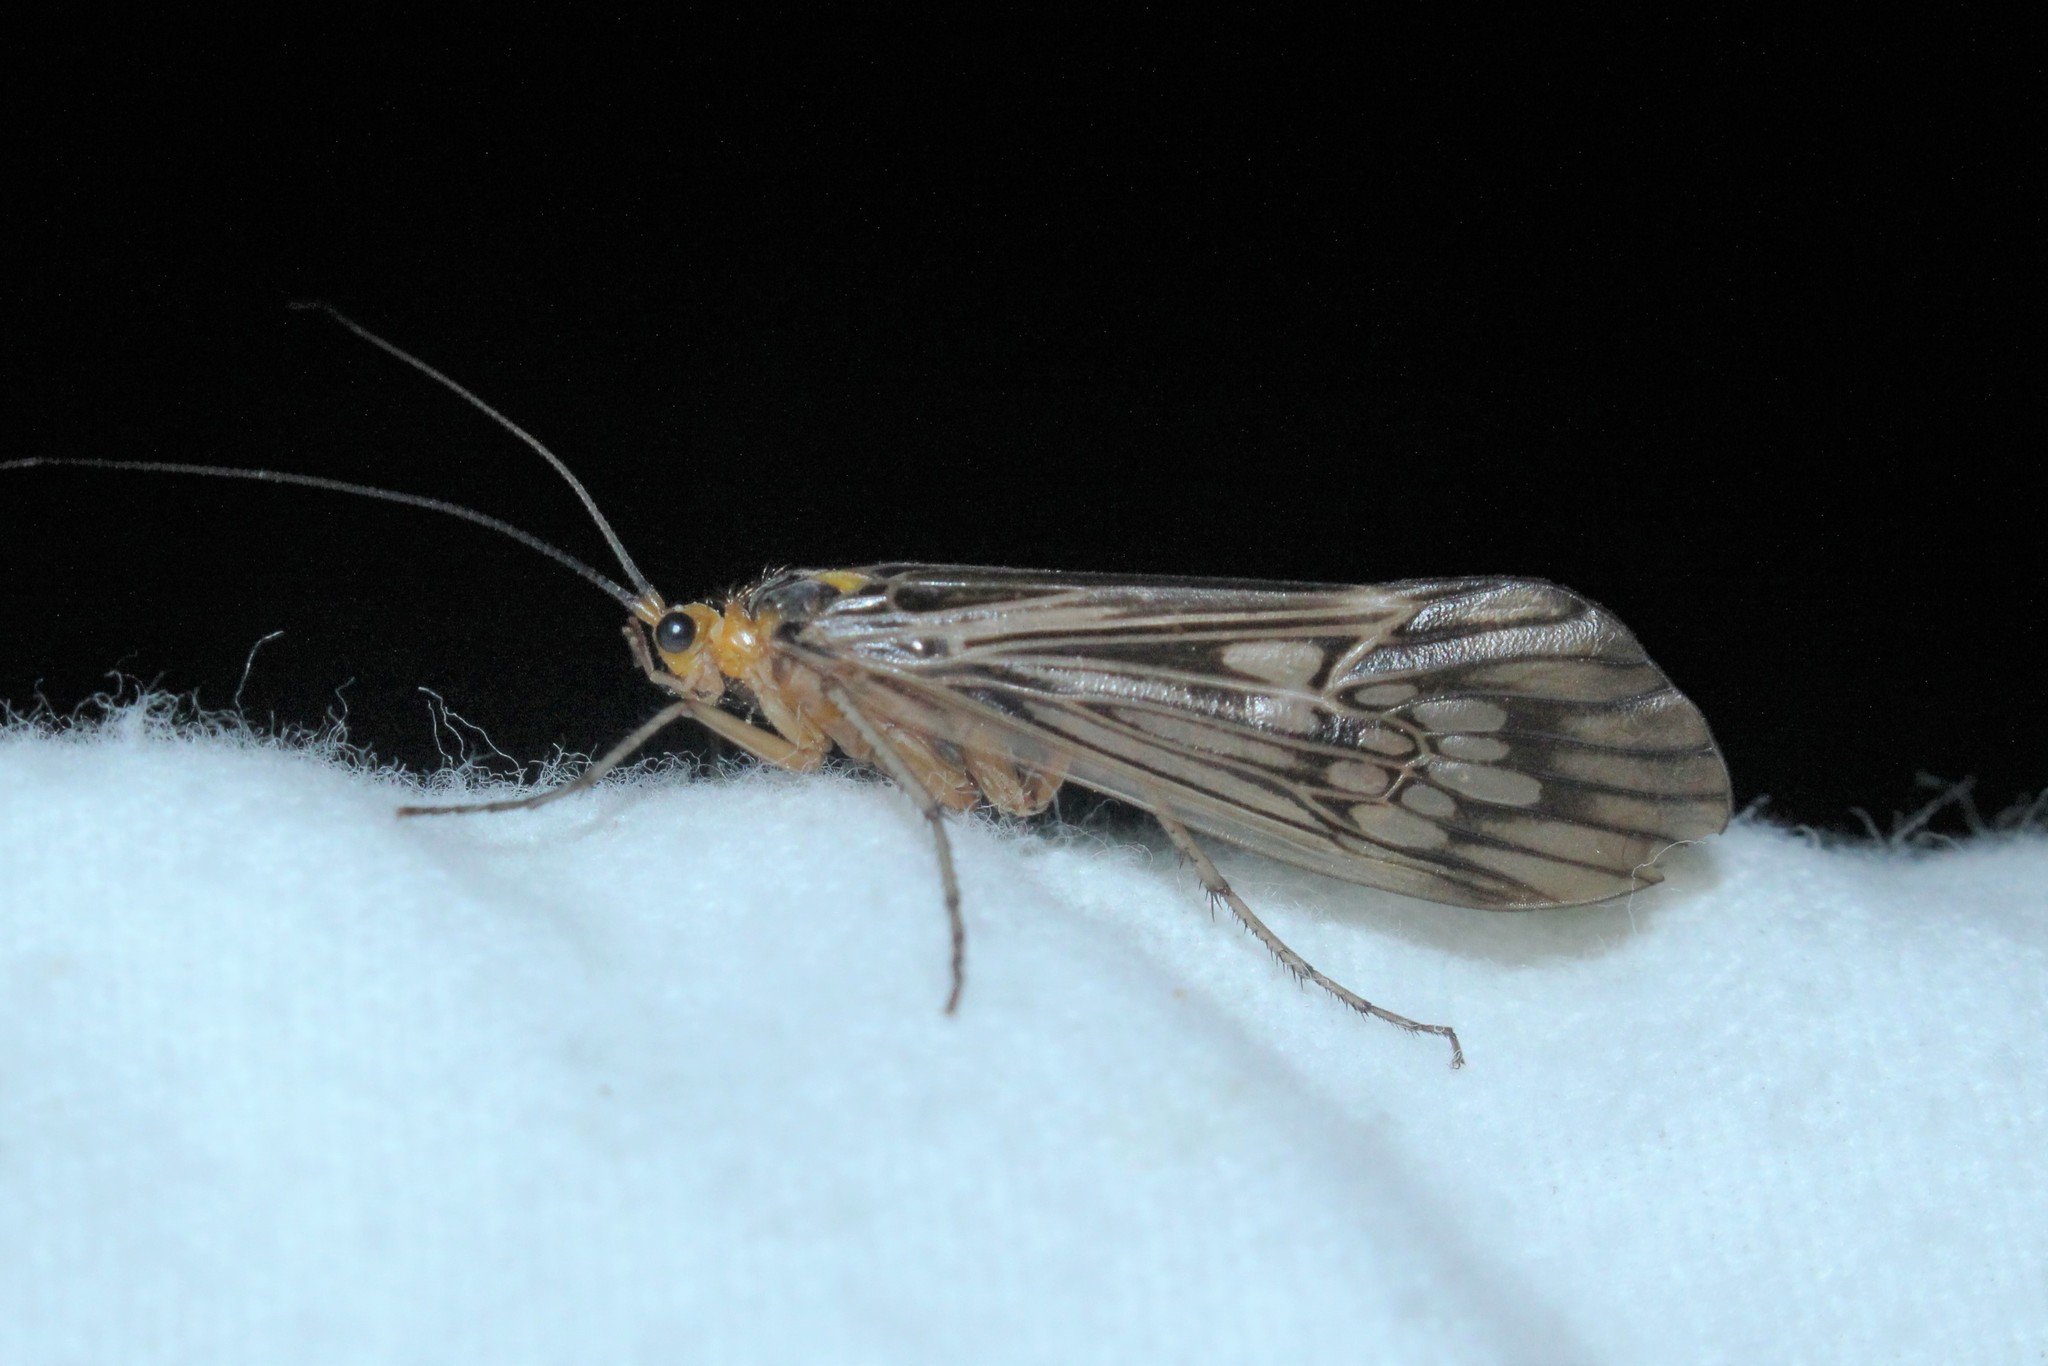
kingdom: Animalia
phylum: Arthropoda
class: Insecta
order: Trichoptera
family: Limnephilidae
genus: Hydatophylax
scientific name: Hydatophylax argus
